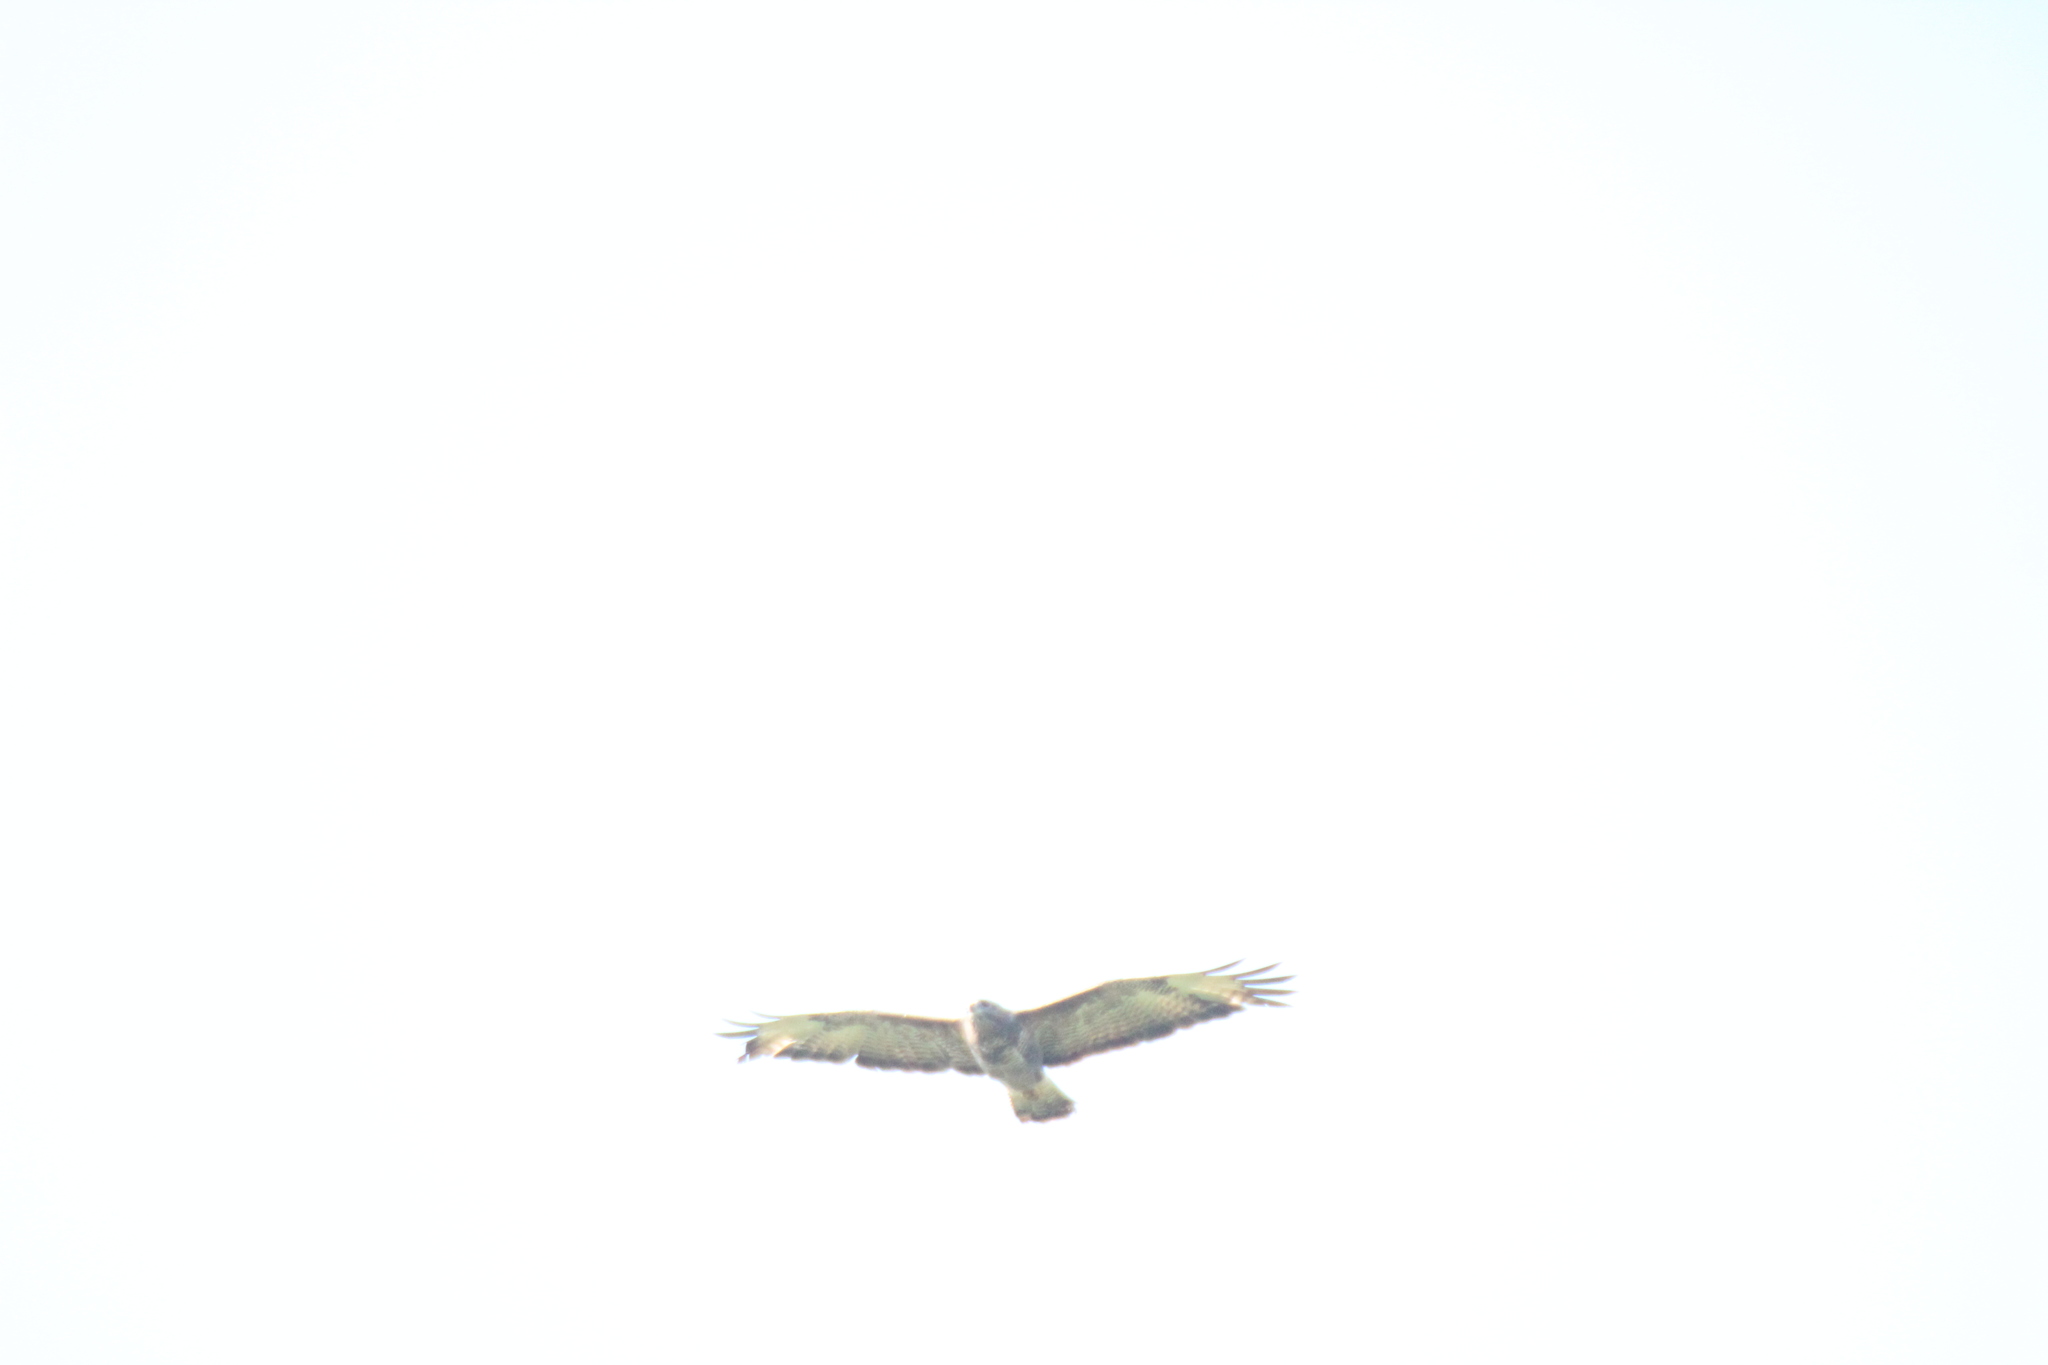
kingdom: Animalia
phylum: Chordata
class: Aves
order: Accipitriformes
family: Accipitridae
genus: Buteo
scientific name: Buteo buteo
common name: Common buzzard
